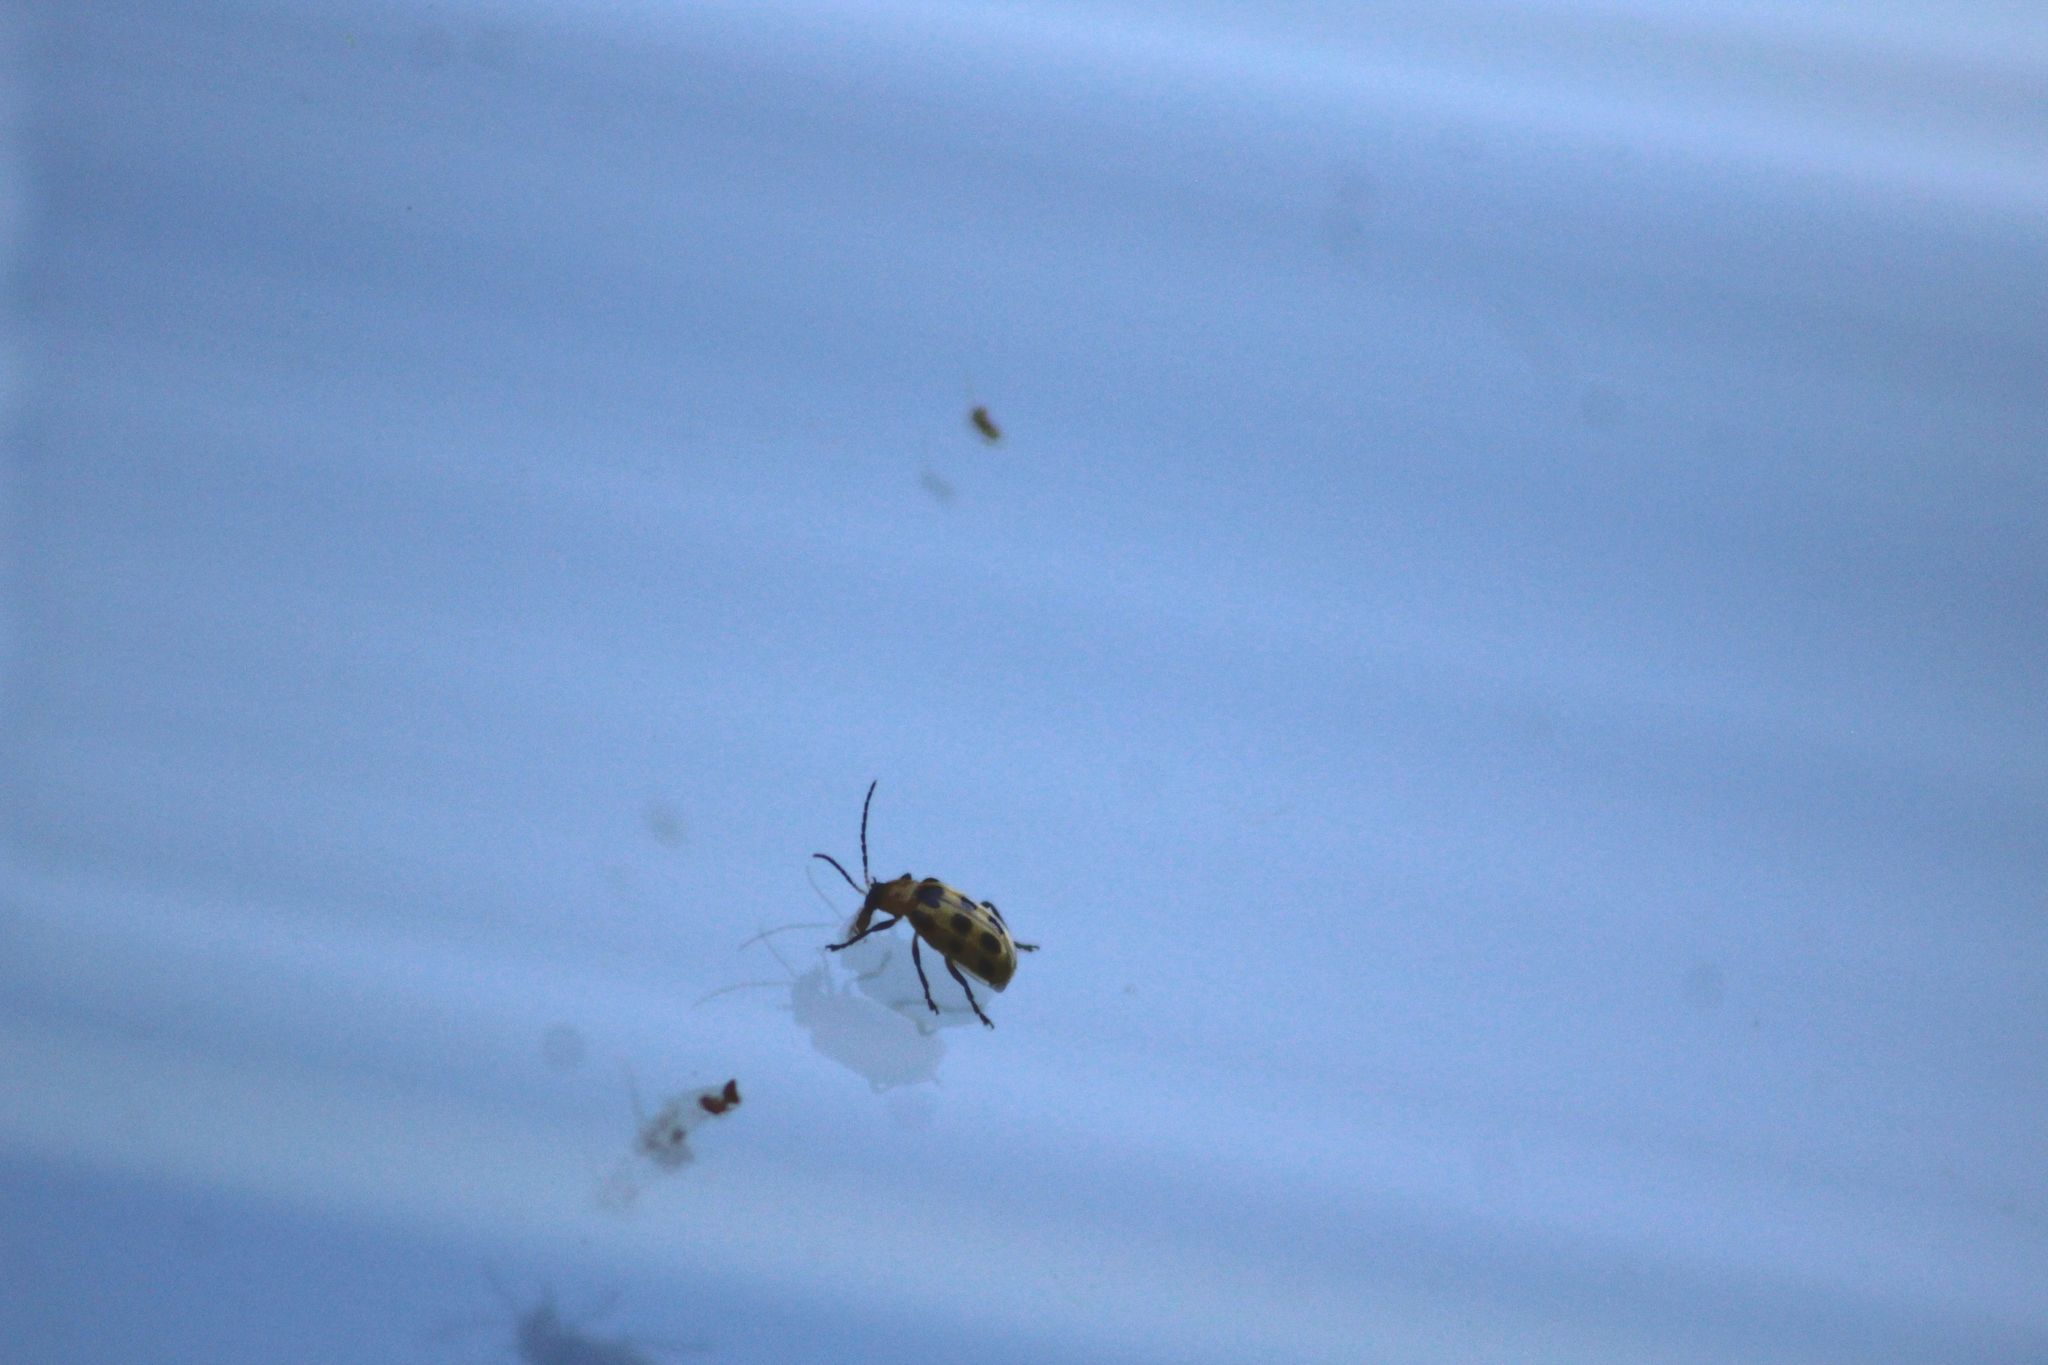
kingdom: Animalia
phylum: Arthropoda
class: Insecta
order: Coleoptera
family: Chrysomelidae
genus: Diabrotica
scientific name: Diabrotica undecimpunctata
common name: Spotted cucumber beetle
